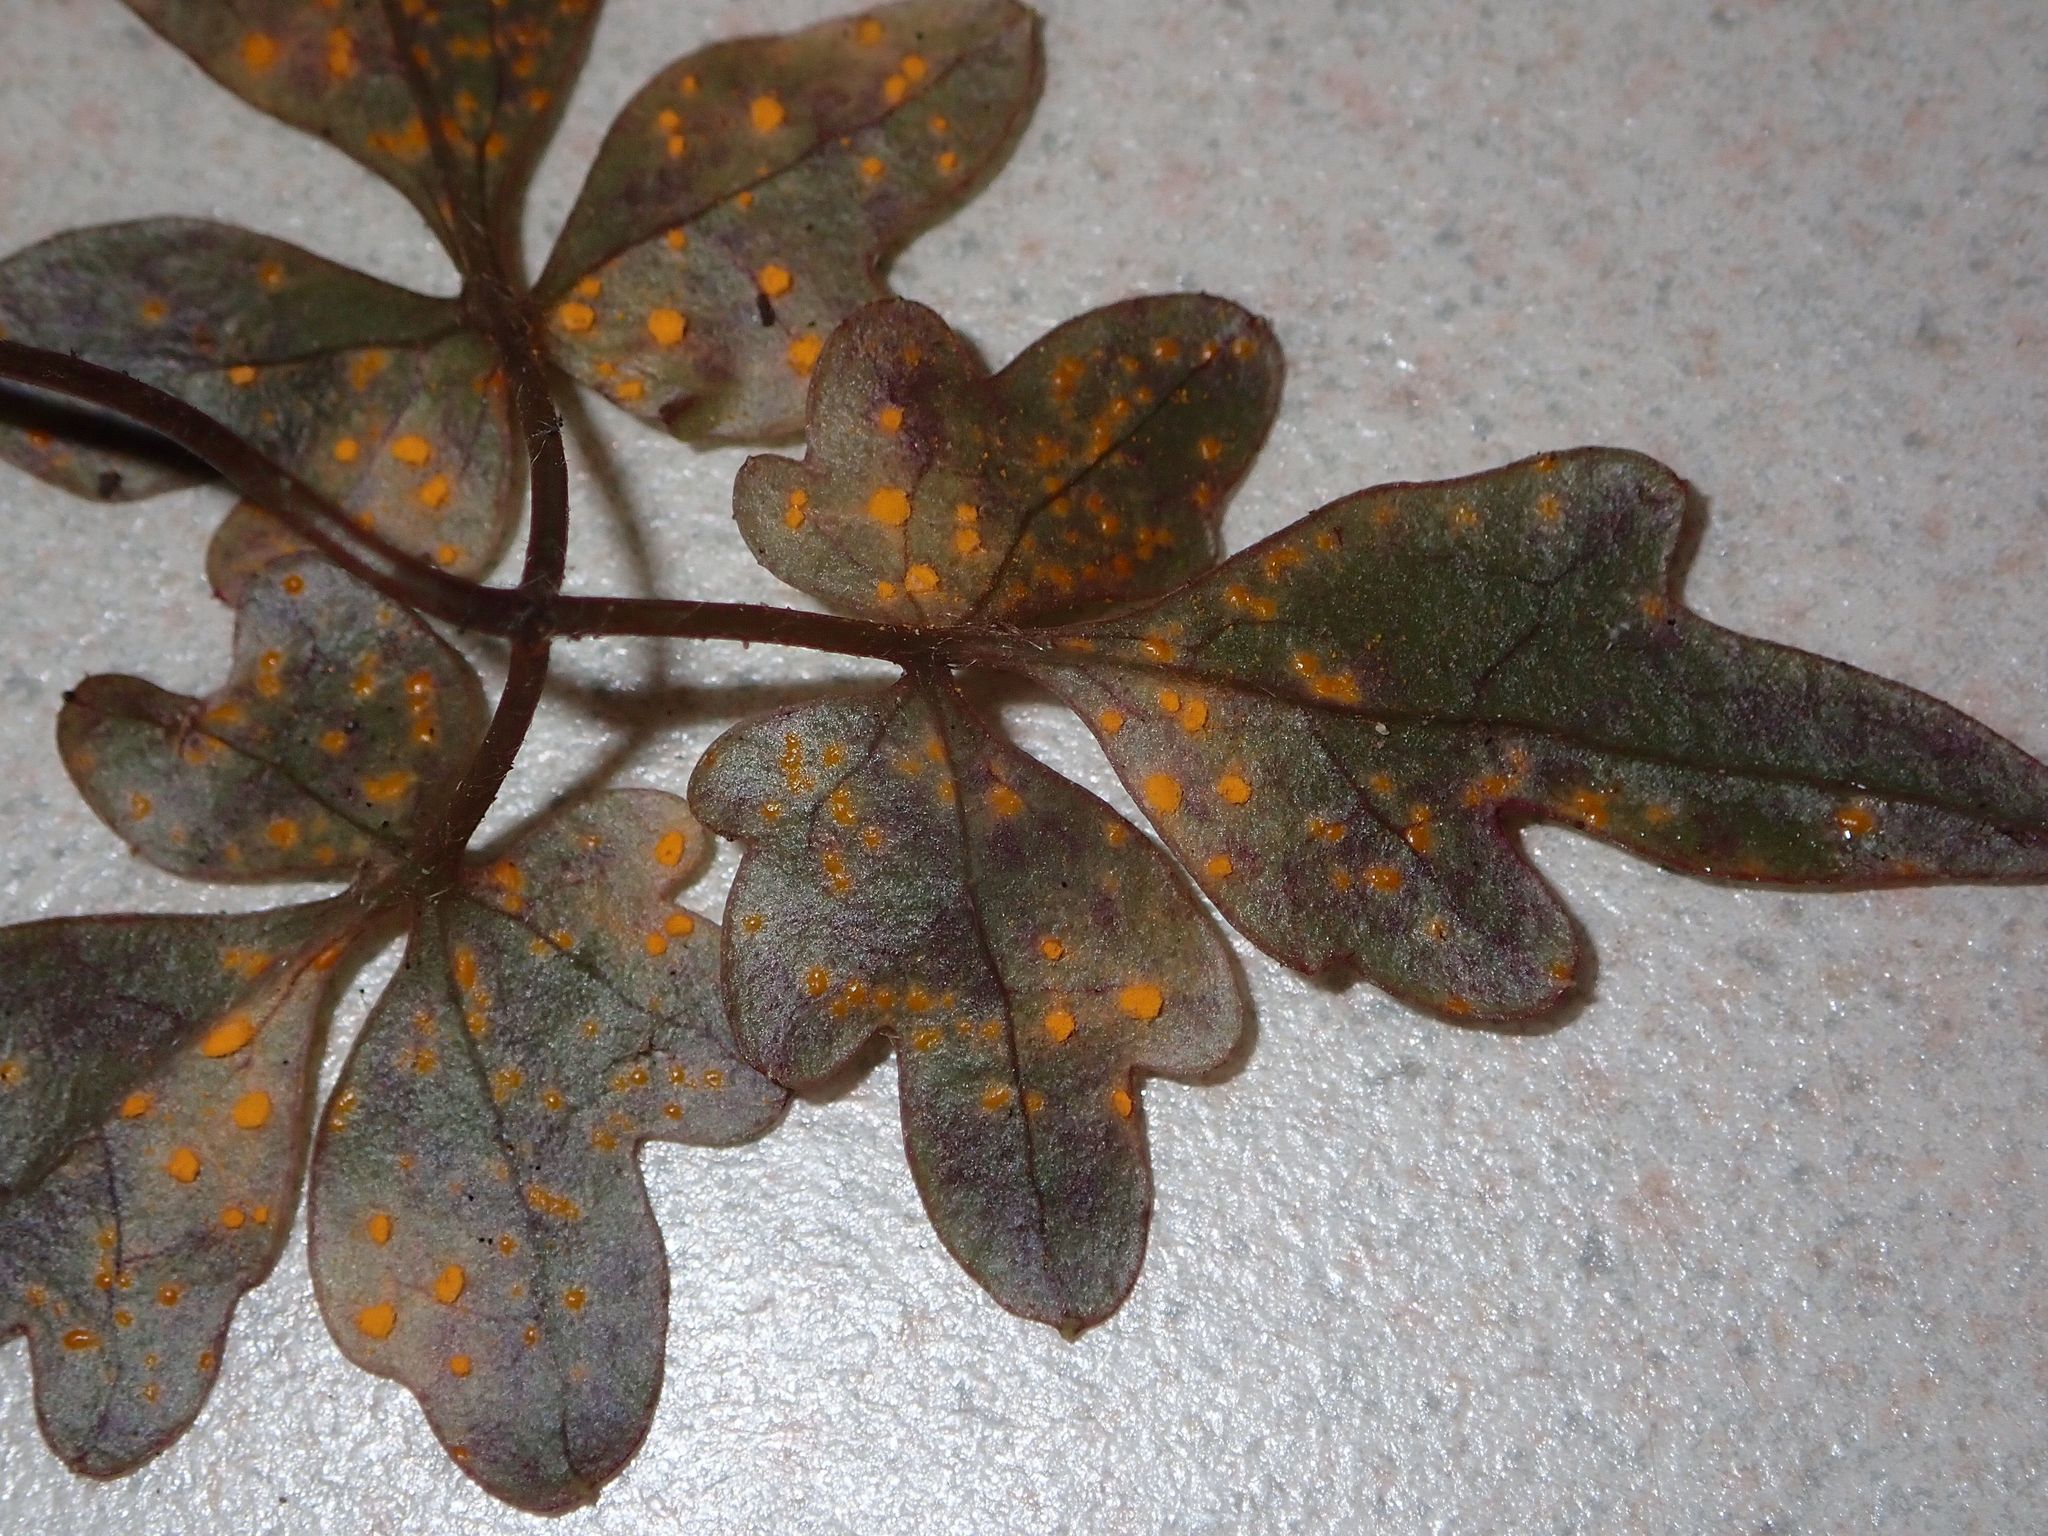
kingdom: Fungi
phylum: Basidiomycota
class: Pucciniomycetes
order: Pucciniales
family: Pucciniaceae
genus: Uredo
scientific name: Uredo puawhananga
